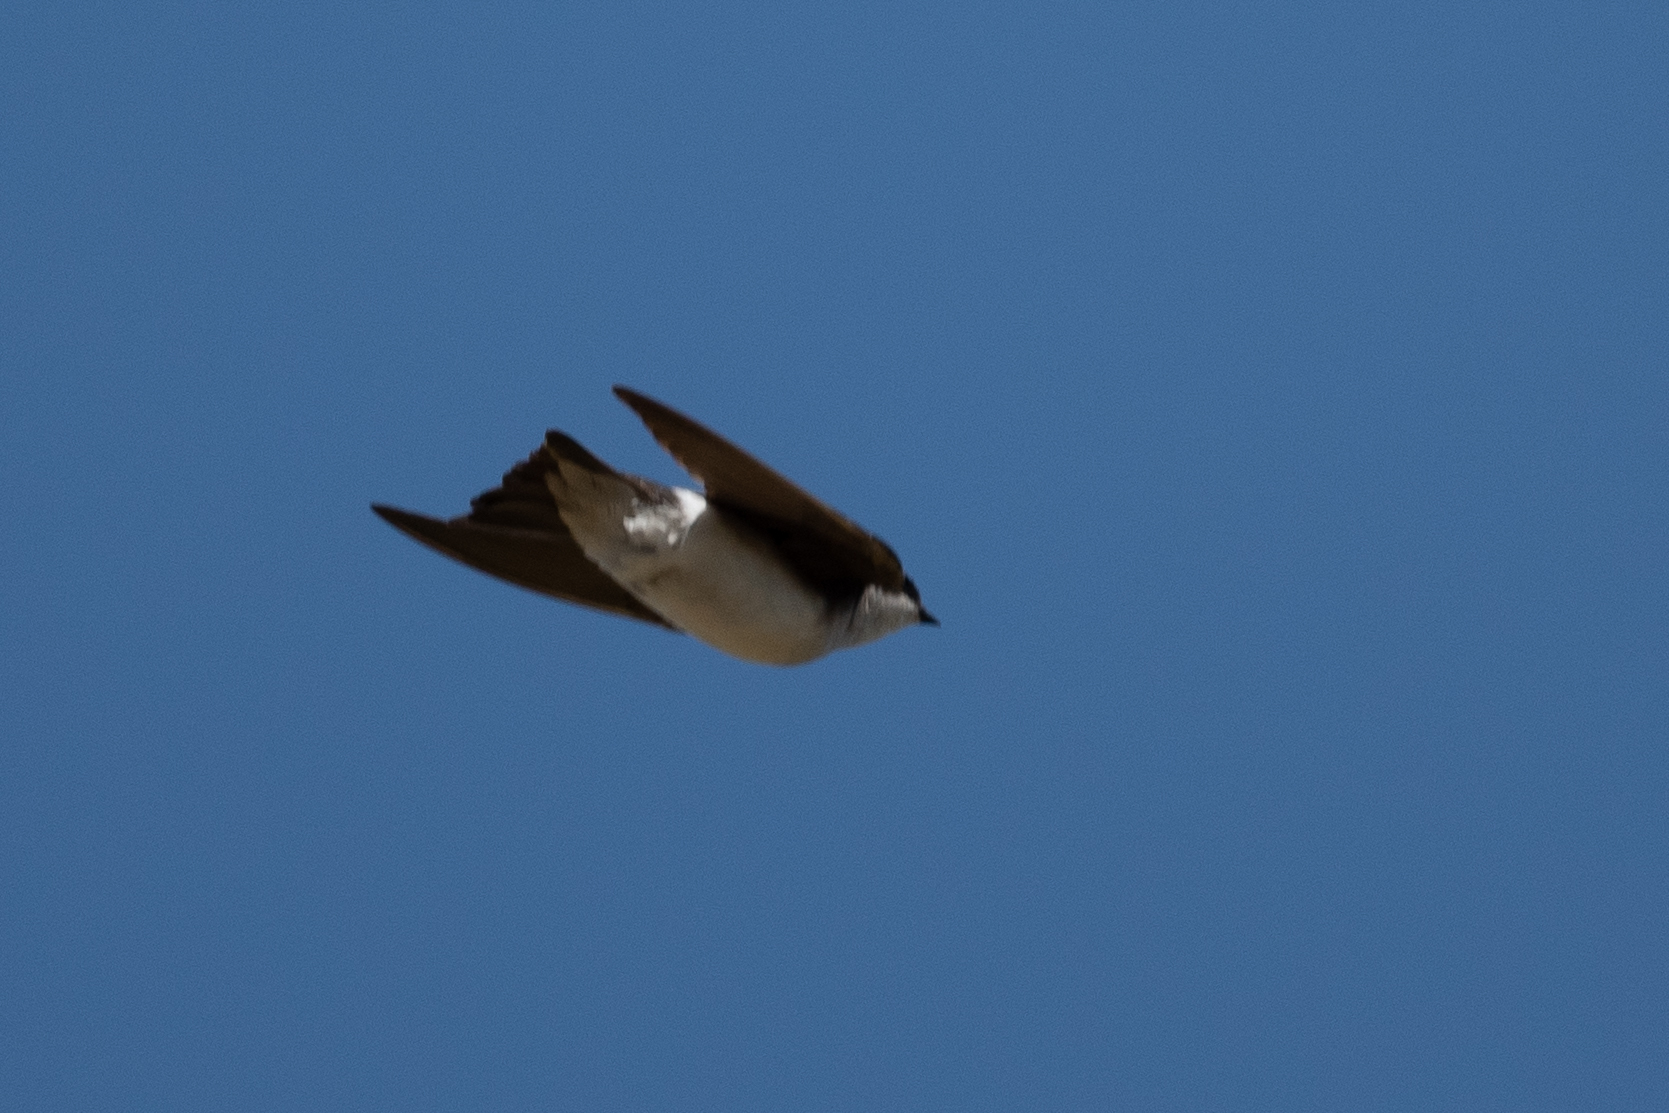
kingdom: Animalia
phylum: Chordata
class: Aves
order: Passeriformes
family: Hirundinidae
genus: Tachycineta
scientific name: Tachycineta bicolor
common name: Tree swallow
